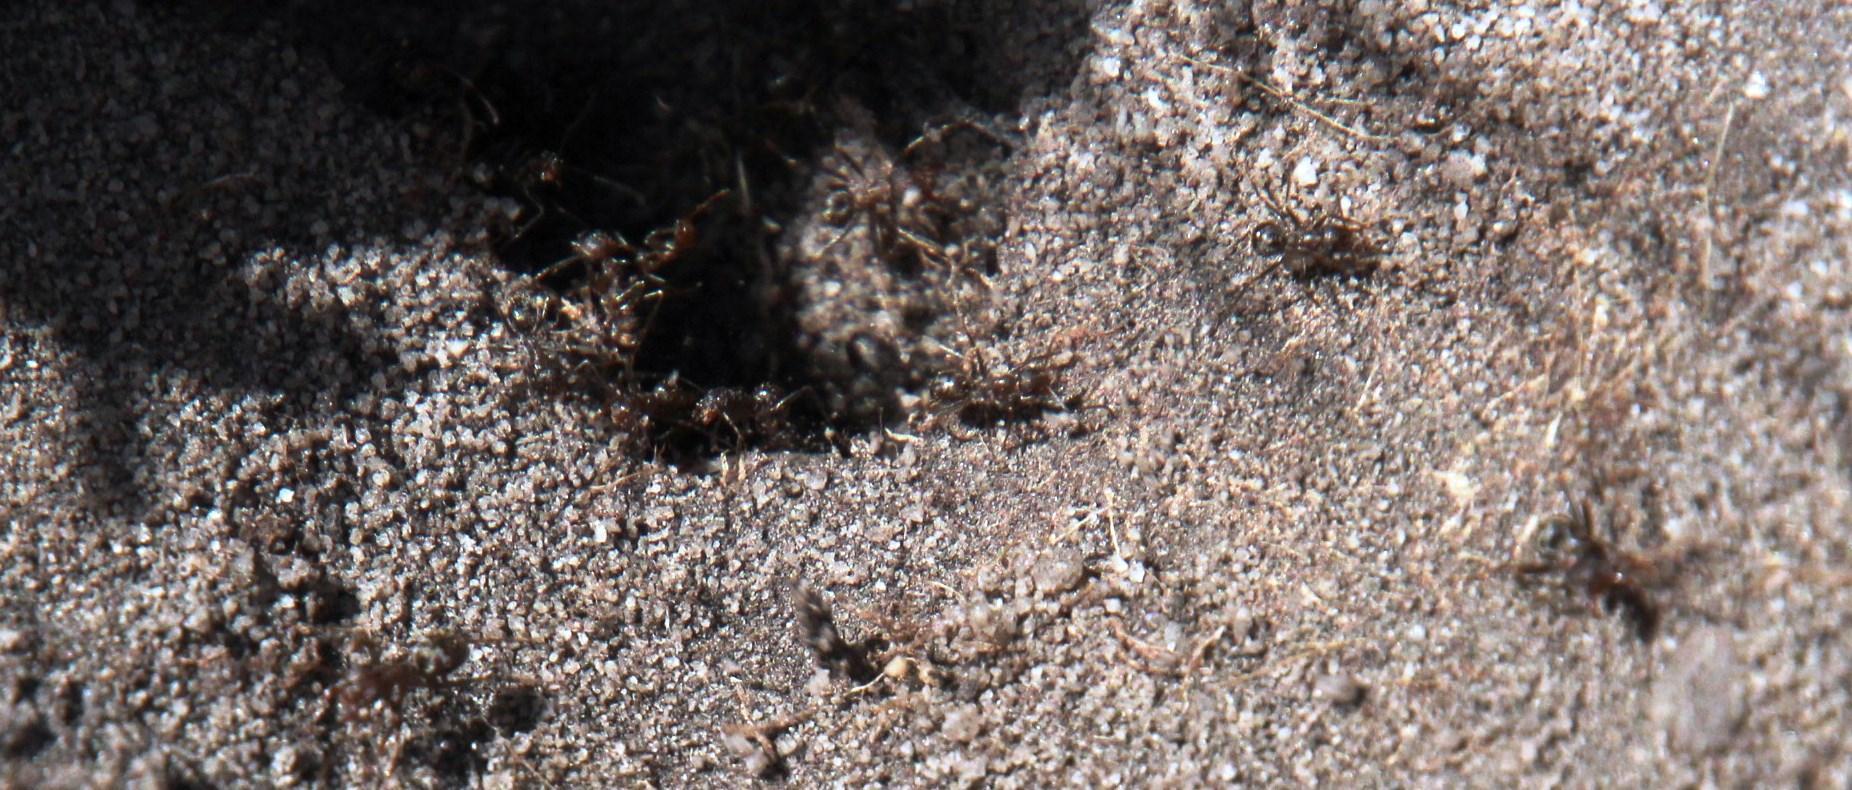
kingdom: Animalia
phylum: Arthropoda
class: Insecta
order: Hymenoptera
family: Formicidae
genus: Anoplolepis
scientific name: Anoplolepis steingroeveri
